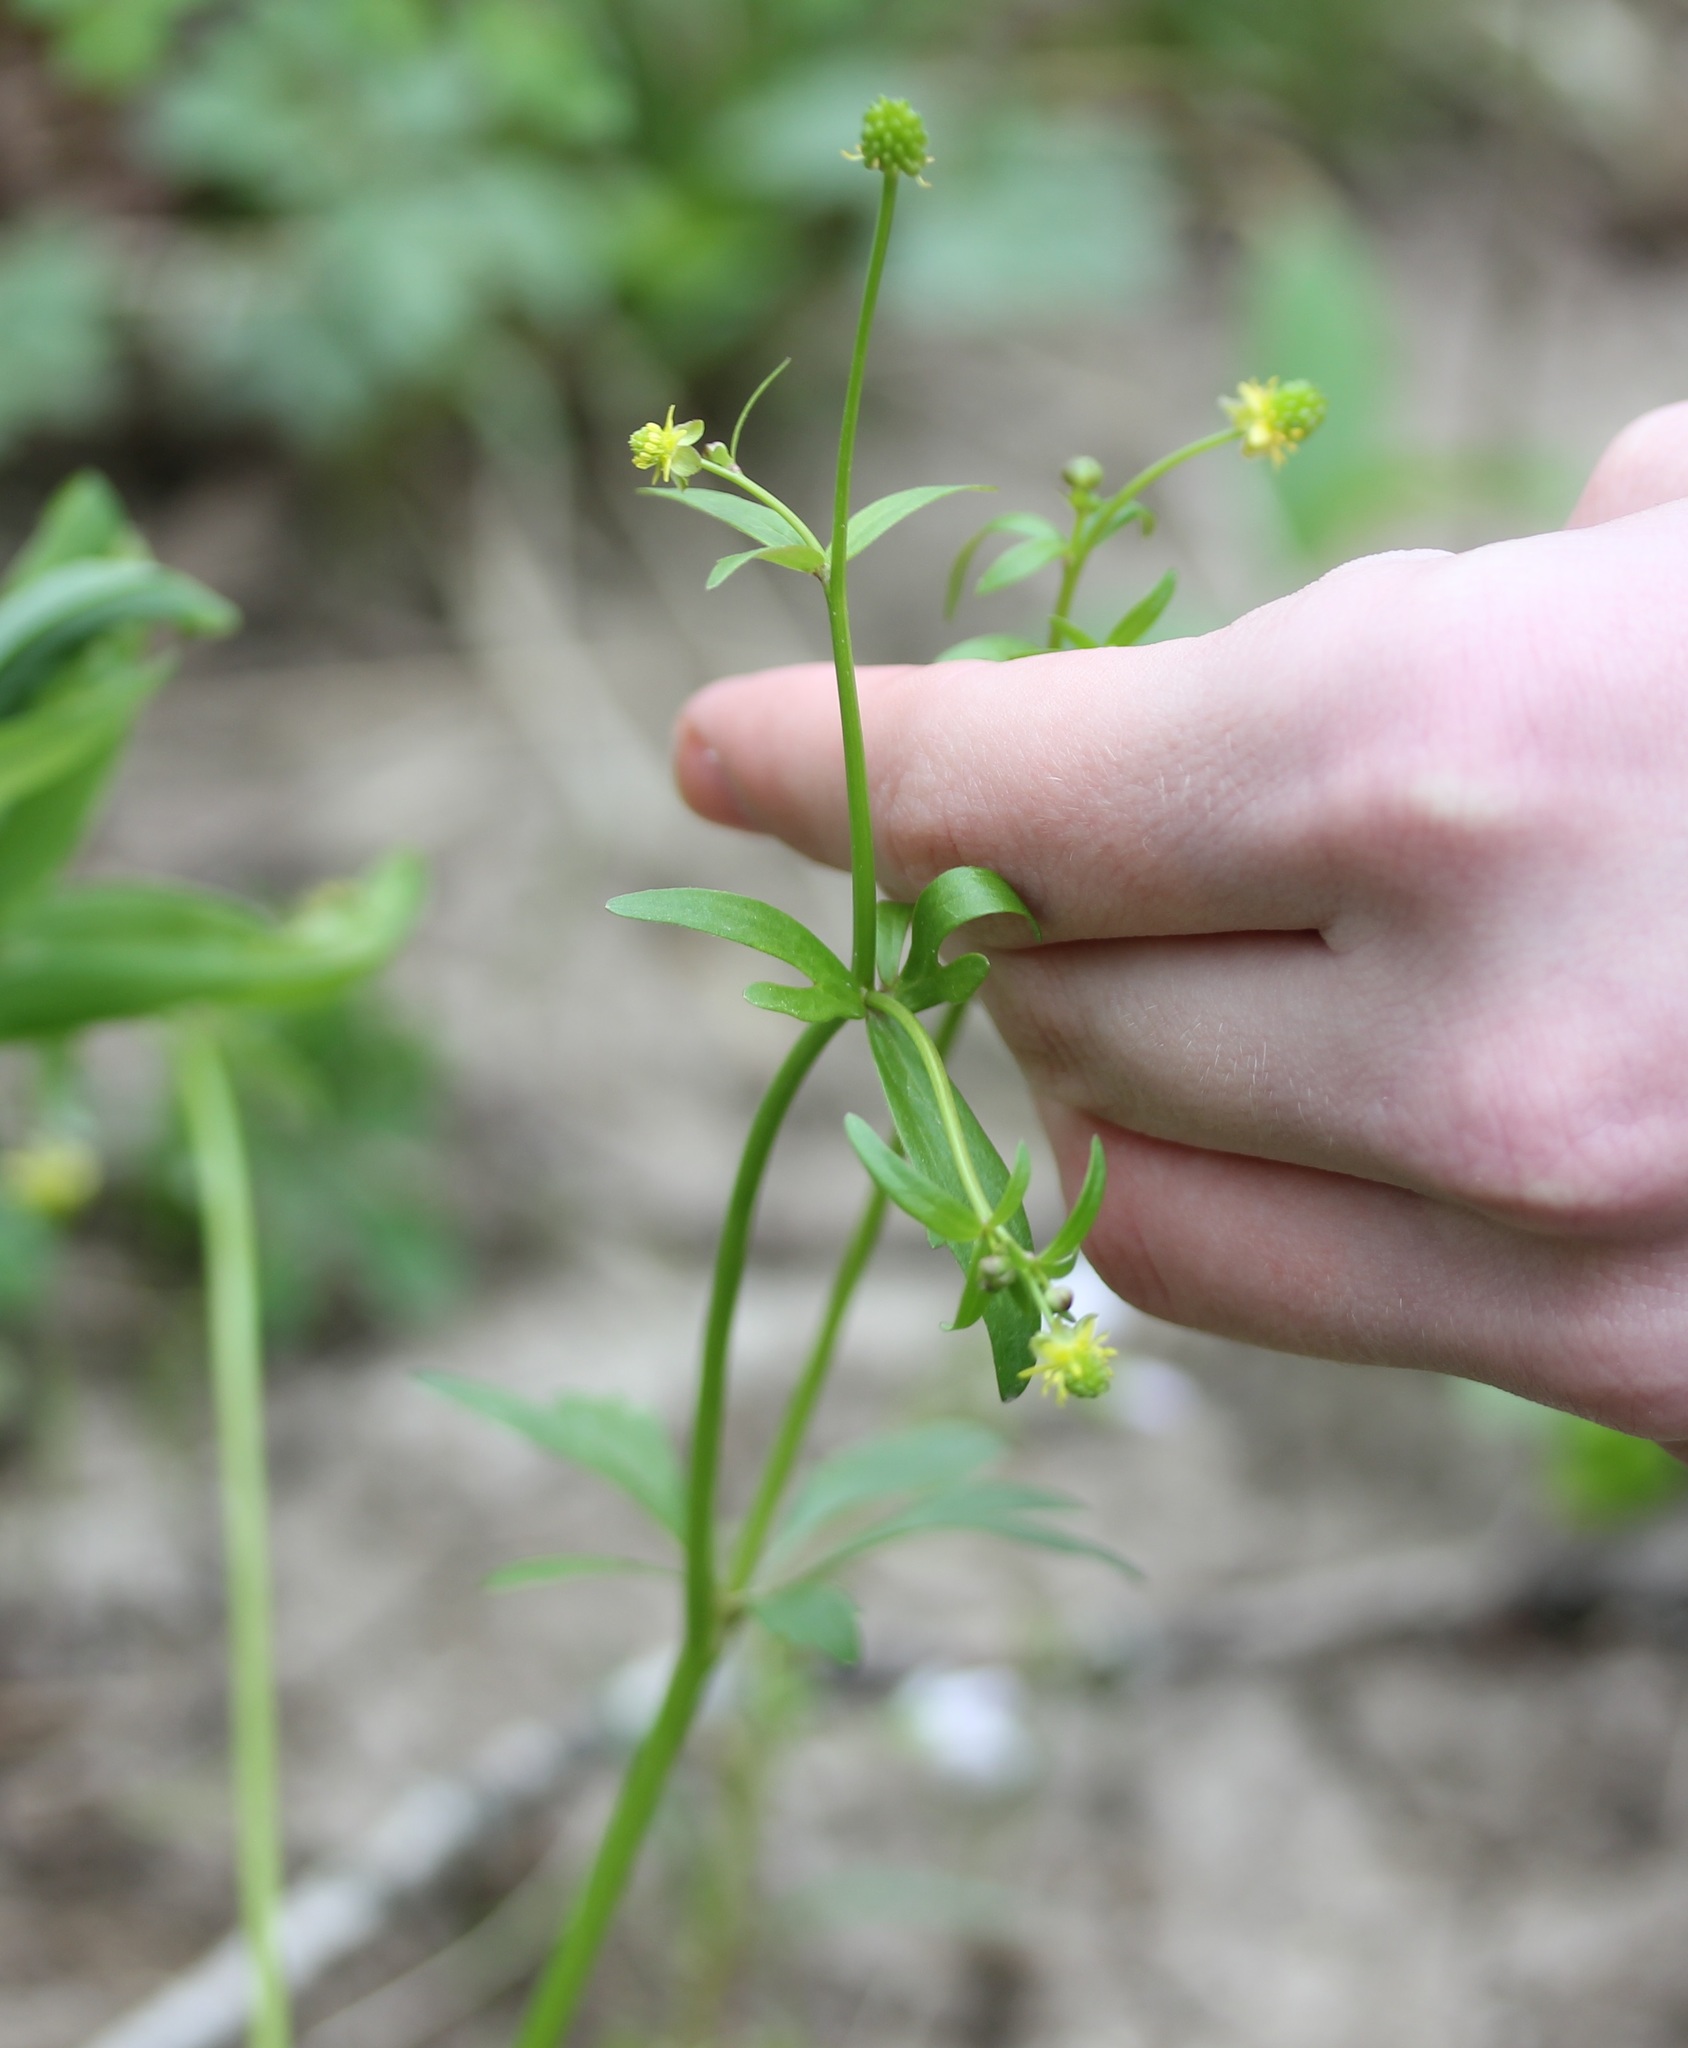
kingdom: Plantae
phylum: Tracheophyta
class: Magnoliopsida
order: Ranunculales
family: Ranunculaceae
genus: Ranunculus
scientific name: Ranunculus abortivus
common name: Early wood buttercup
